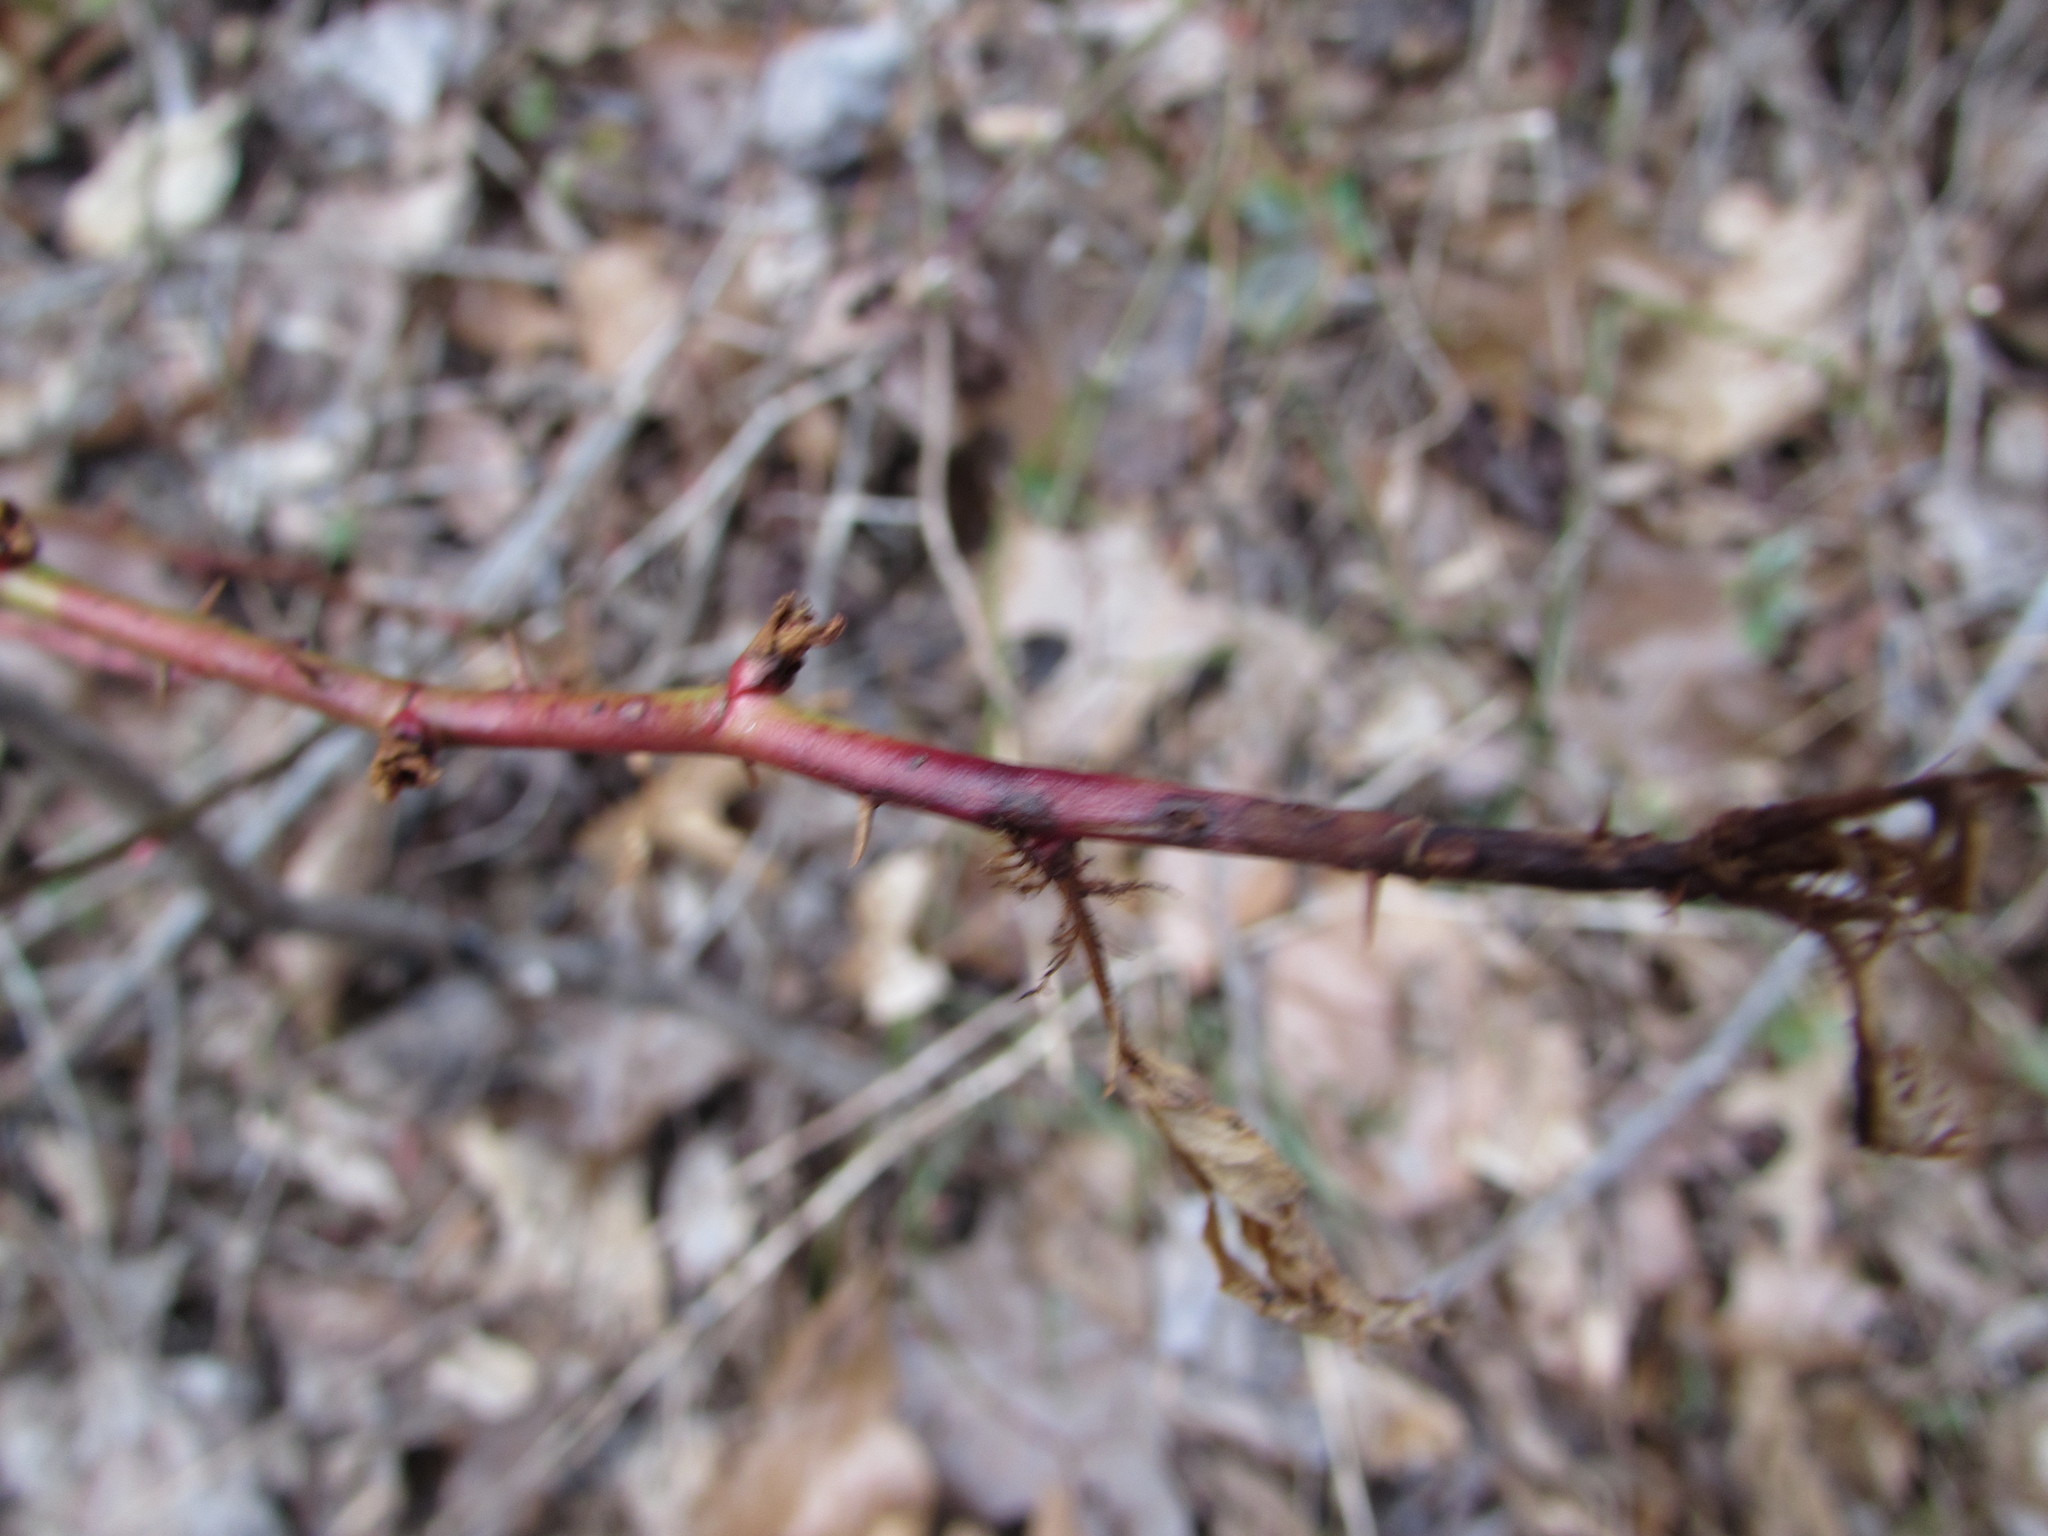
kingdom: Plantae
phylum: Tracheophyta
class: Magnoliopsida
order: Rosales
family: Rosaceae
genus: Rosa
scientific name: Rosa multiflora
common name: Multiflora rose
